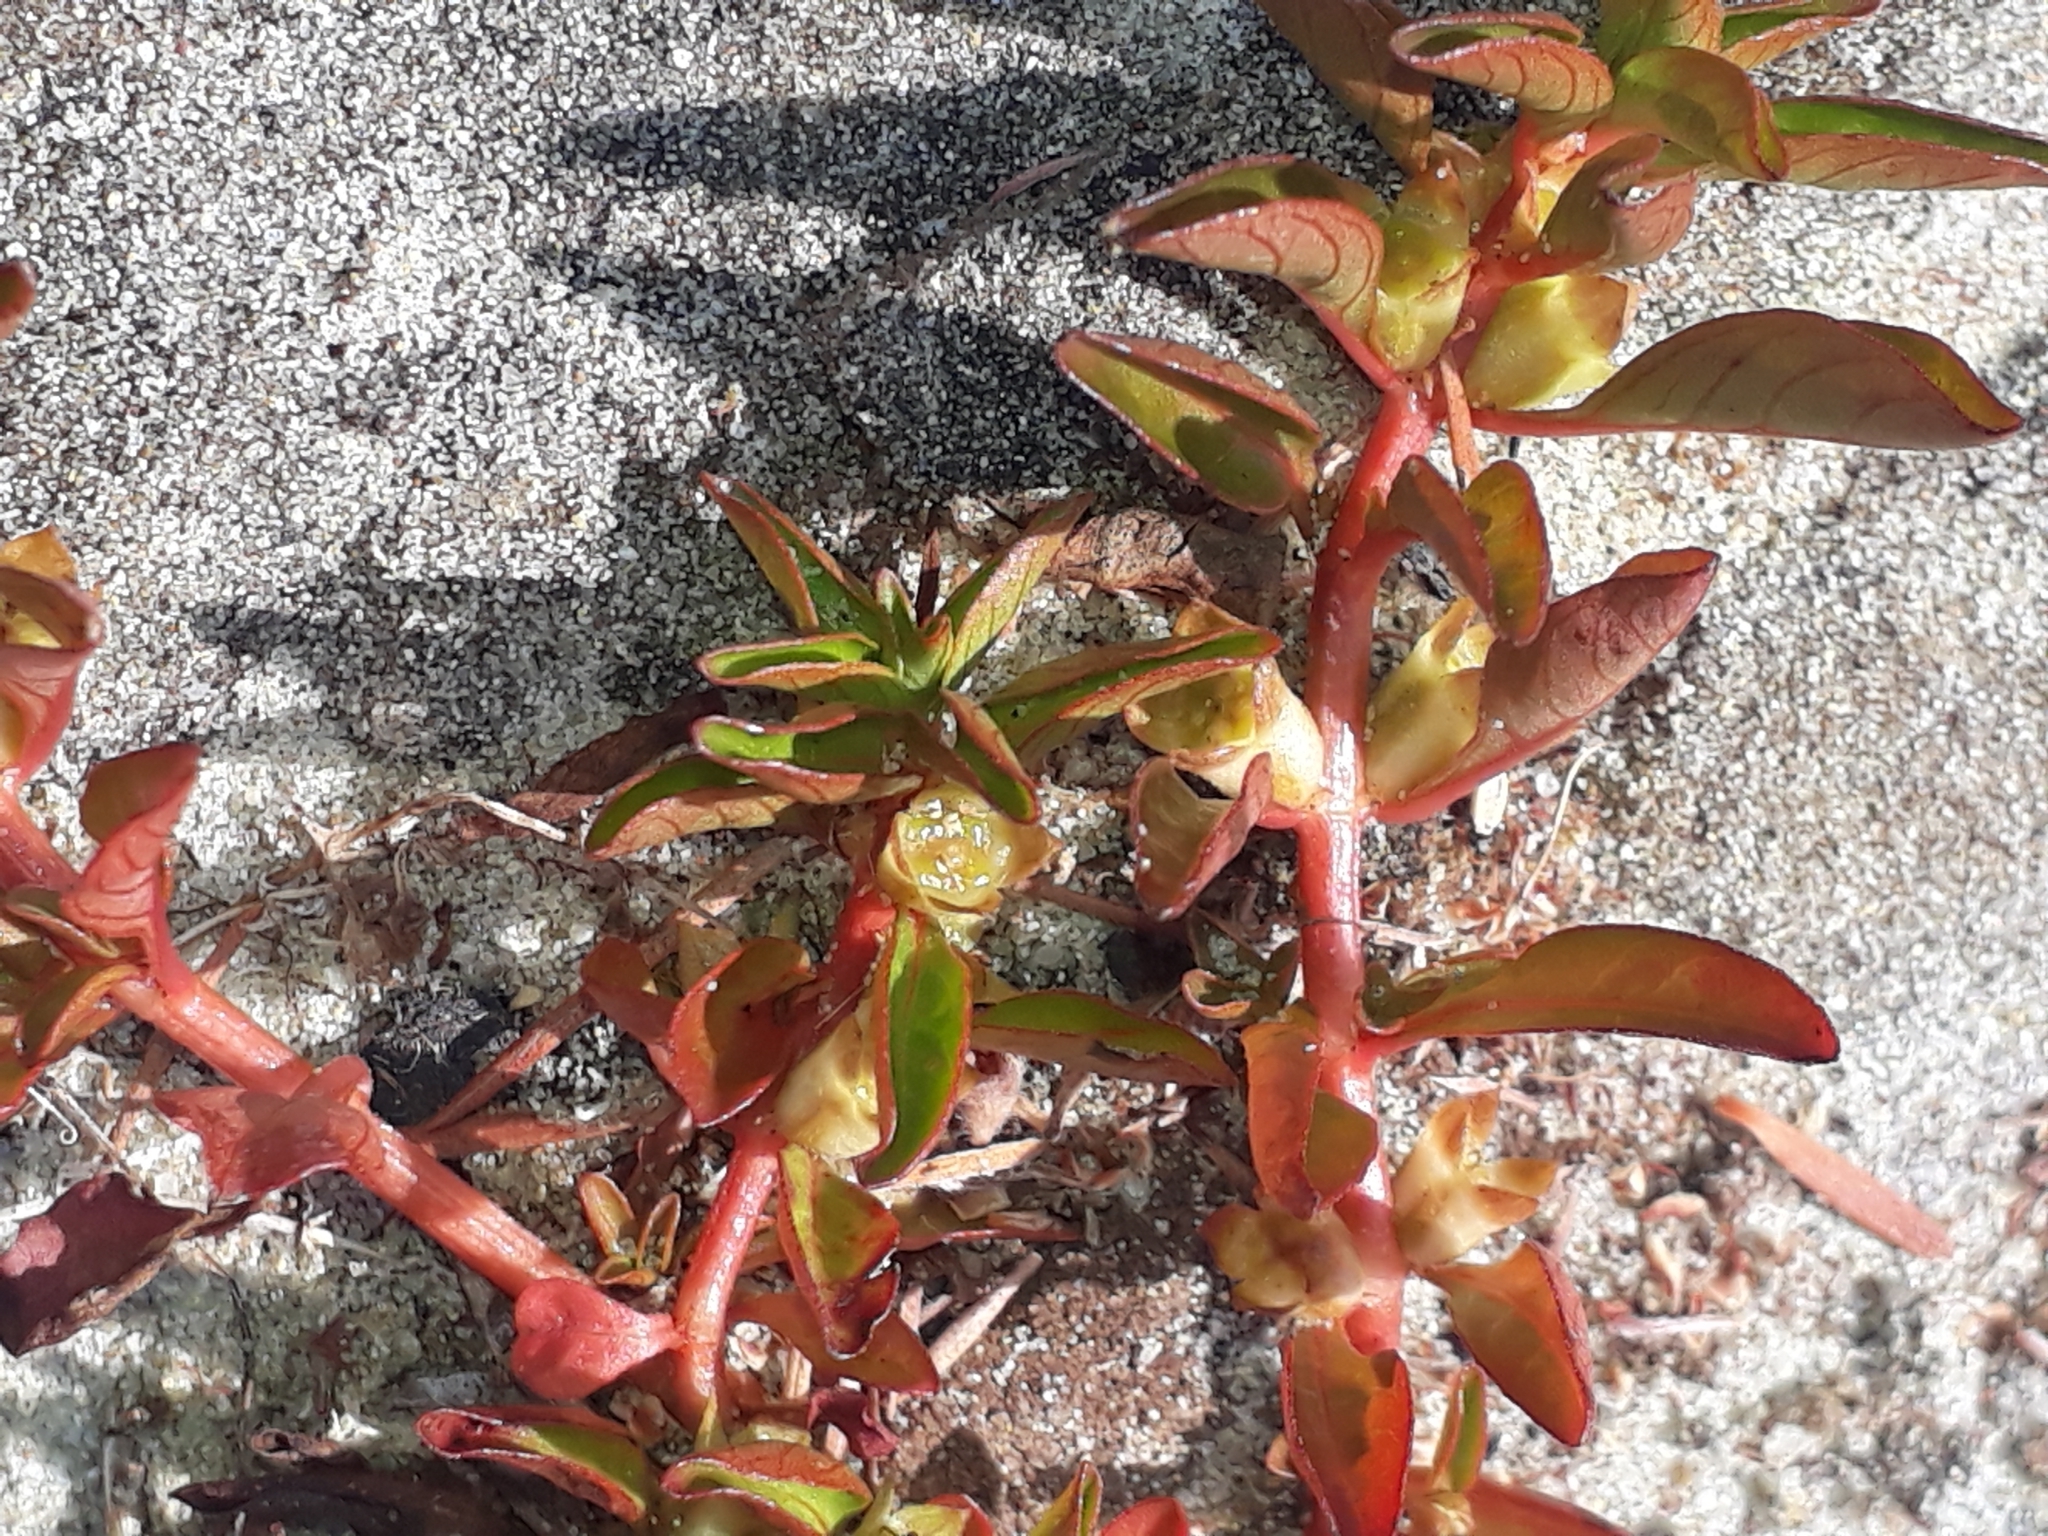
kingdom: Plantae
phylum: Tracheophyta
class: Magnoliopsida
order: Myrtales
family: Onagraceae
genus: Ludwigia
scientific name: Ludwigia palustris
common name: Hampshire-purslane
